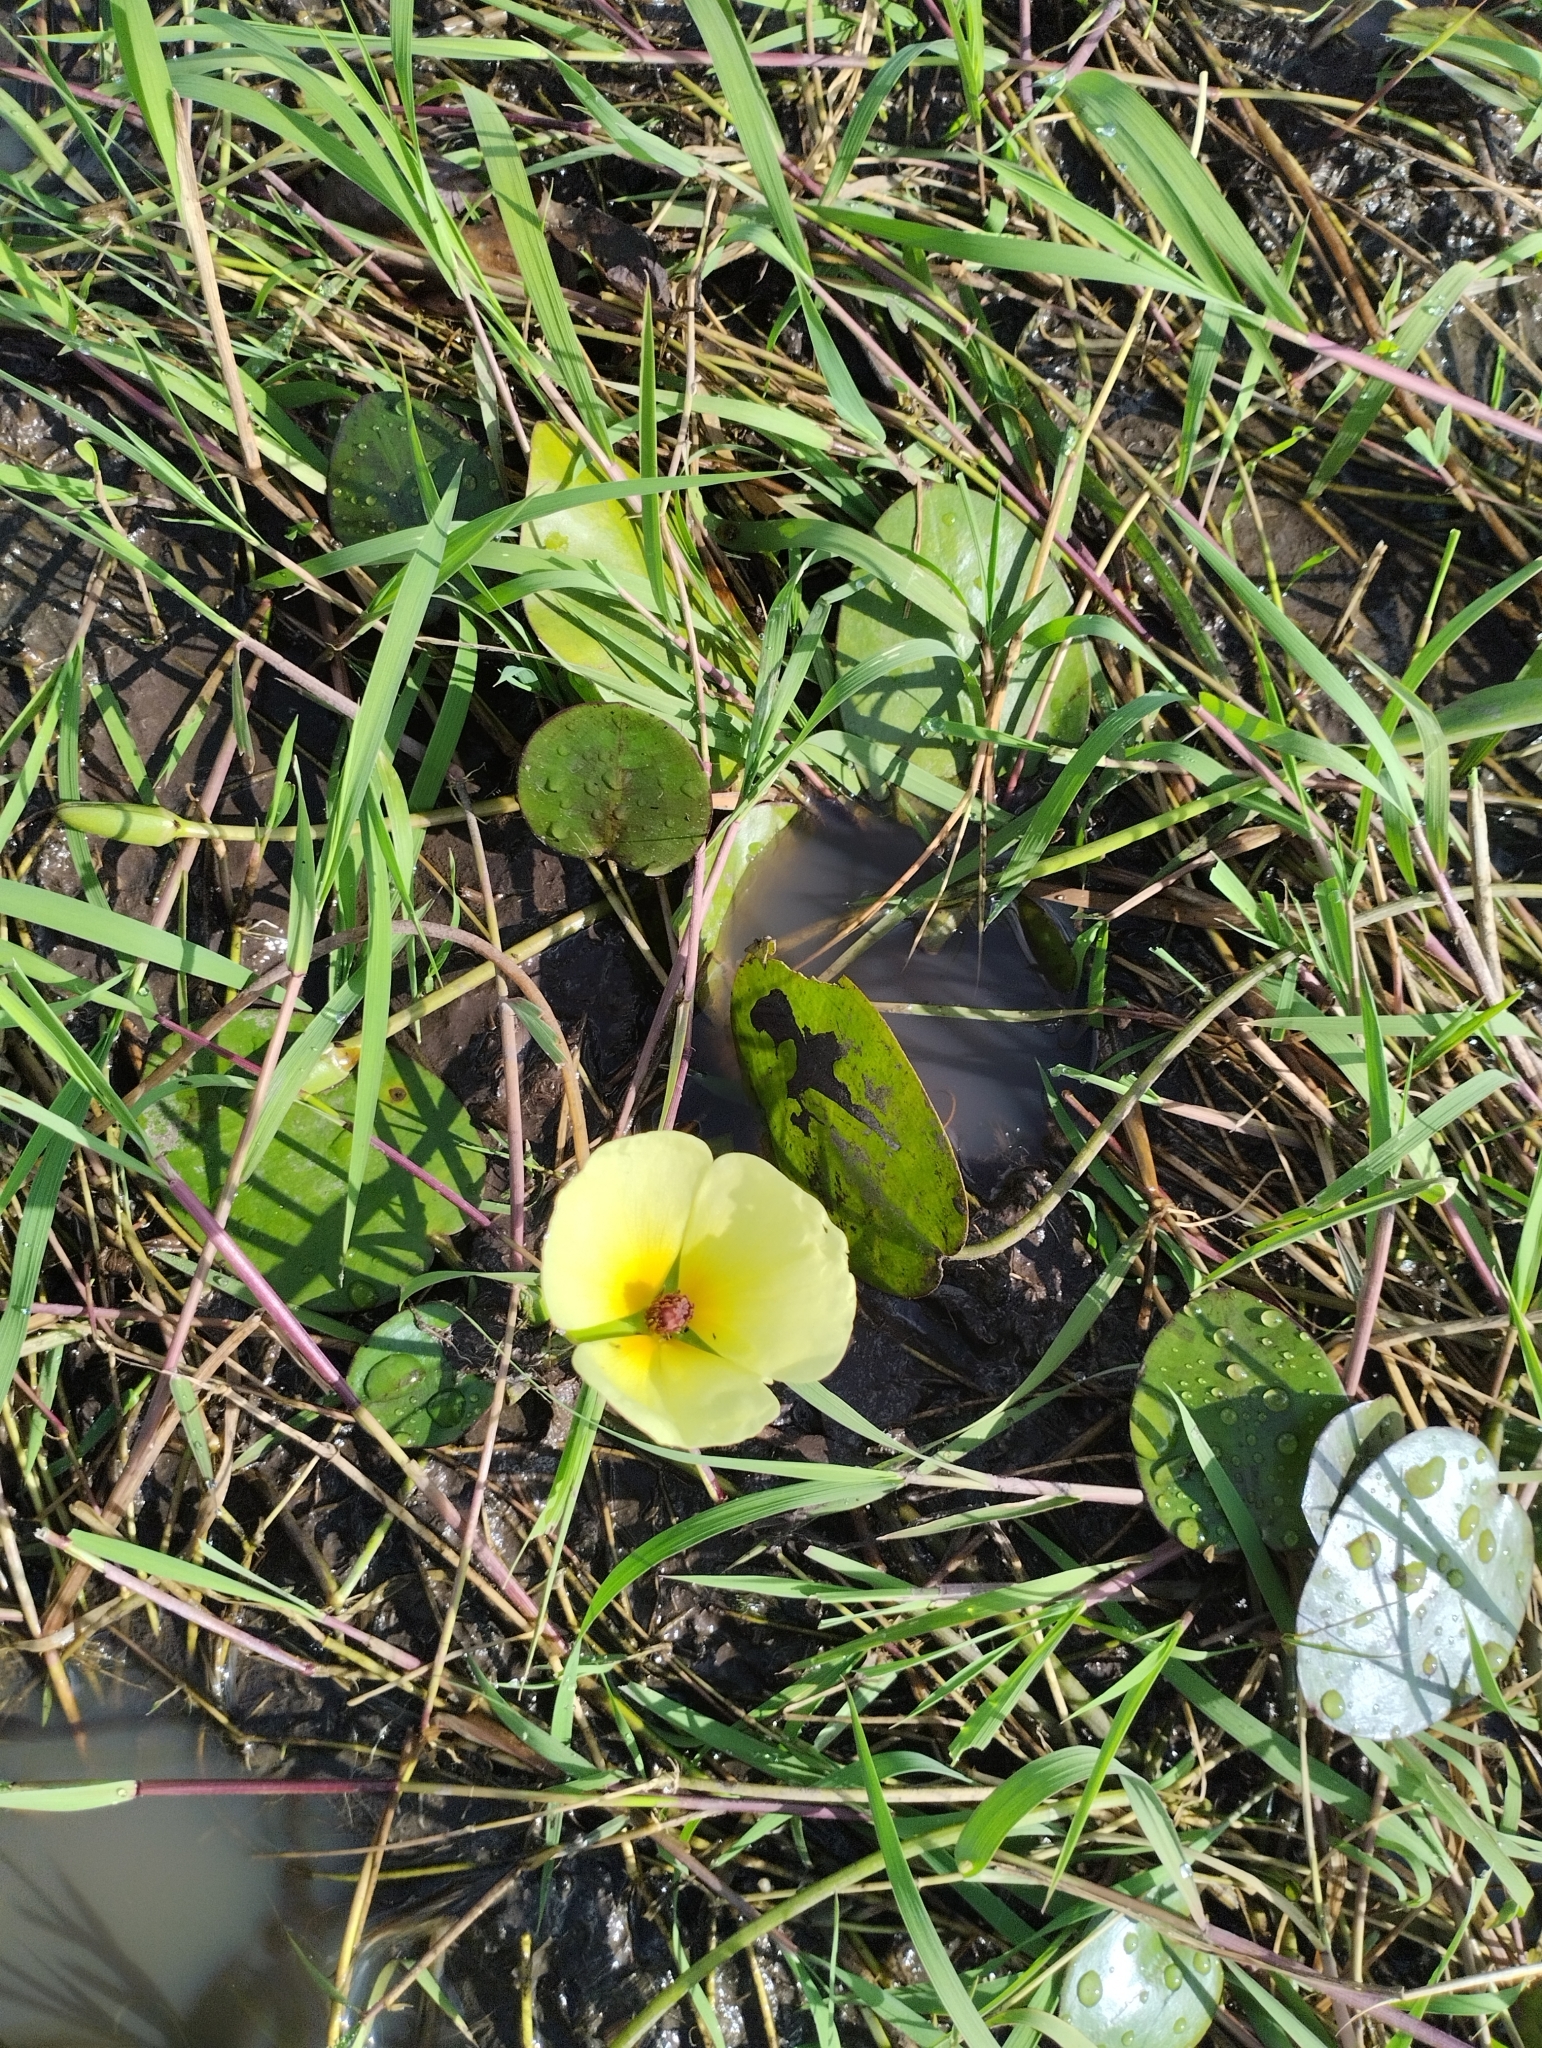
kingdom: Plantae
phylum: Tracheophyta
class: Liliopsida
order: Alismatales
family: Alismataceae
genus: Hydrocleys
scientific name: Hydrocleys nymphoides
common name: Water-poppy
